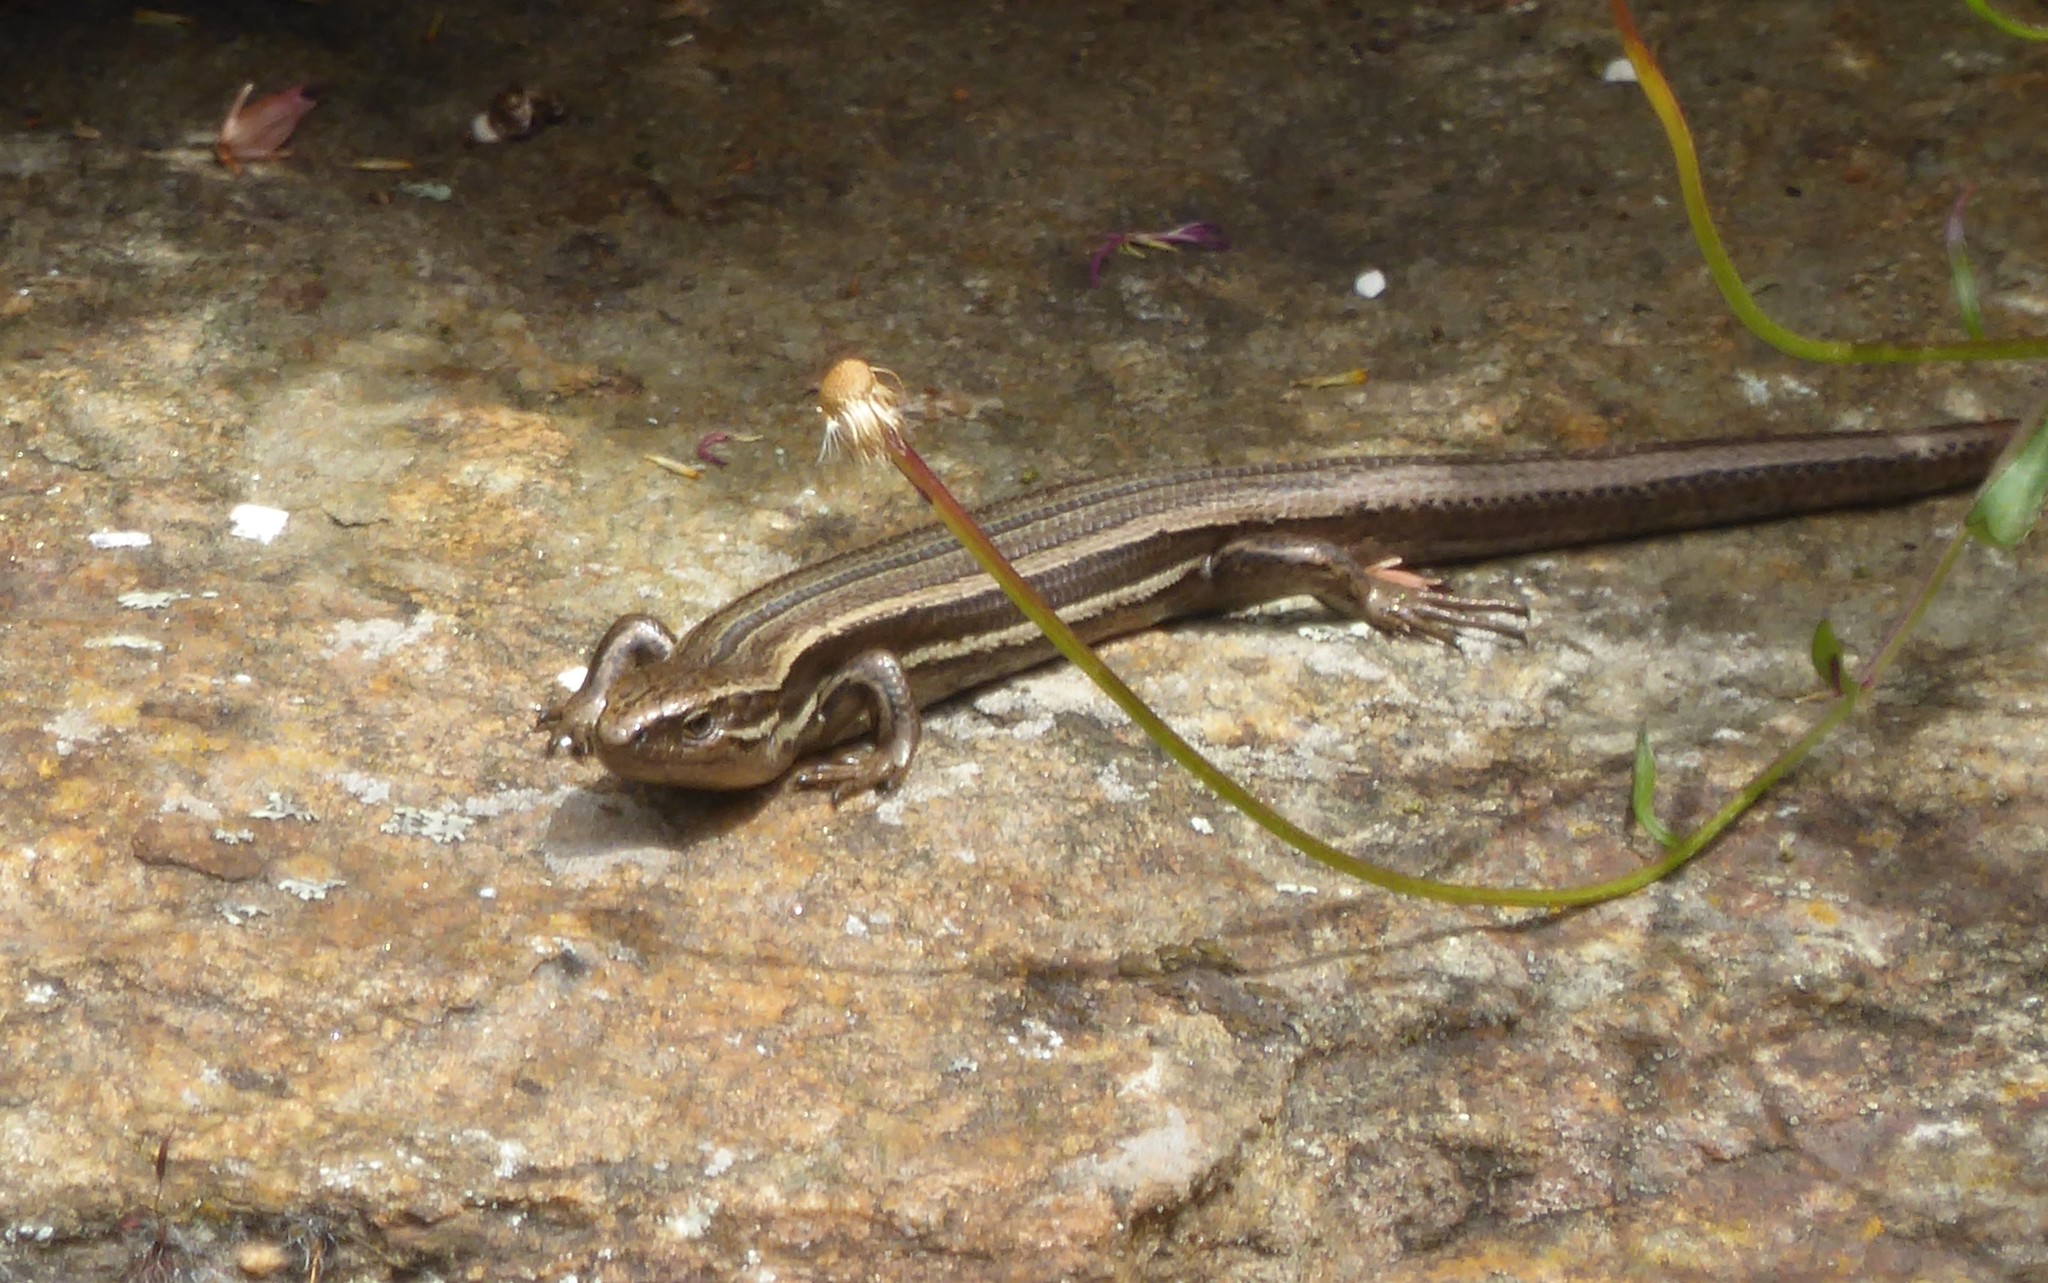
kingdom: Animalia
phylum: Chordata
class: Squamata
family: Scincidae
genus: Oligosoma
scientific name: Oligosoma polychroma
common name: Common new zealand skink
